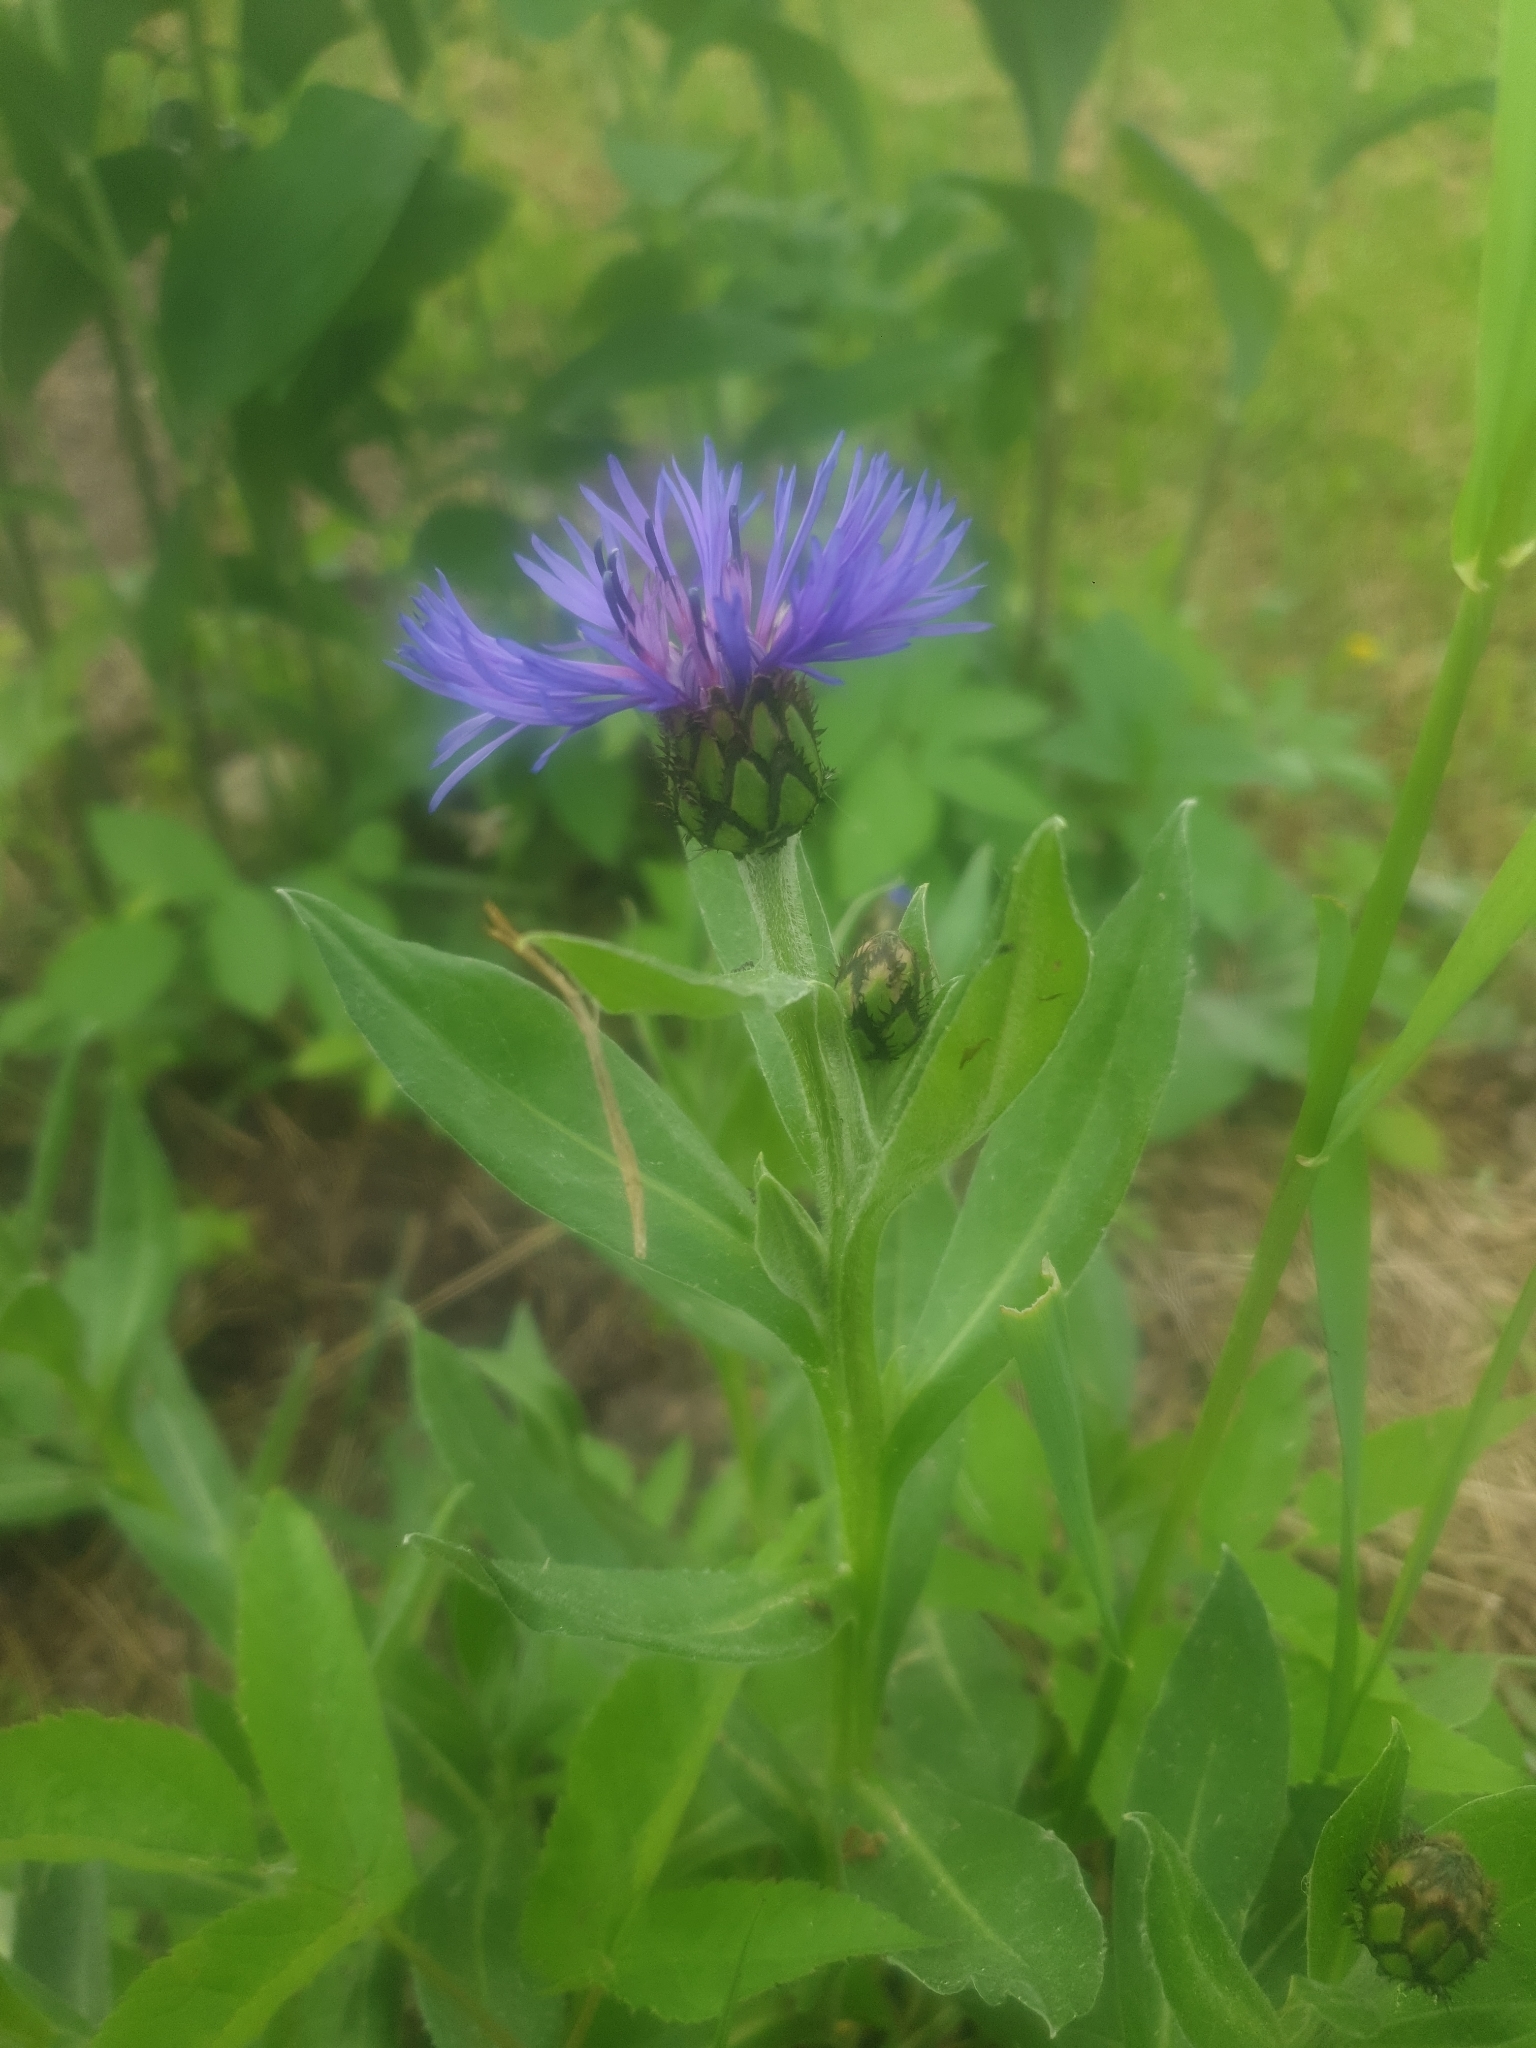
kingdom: Plantae
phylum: Tracheophyta
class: Magnoliopsida
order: Asterales
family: Asteraceae
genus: Centaurea
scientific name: Centaurea montana
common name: Perennial cornflower
